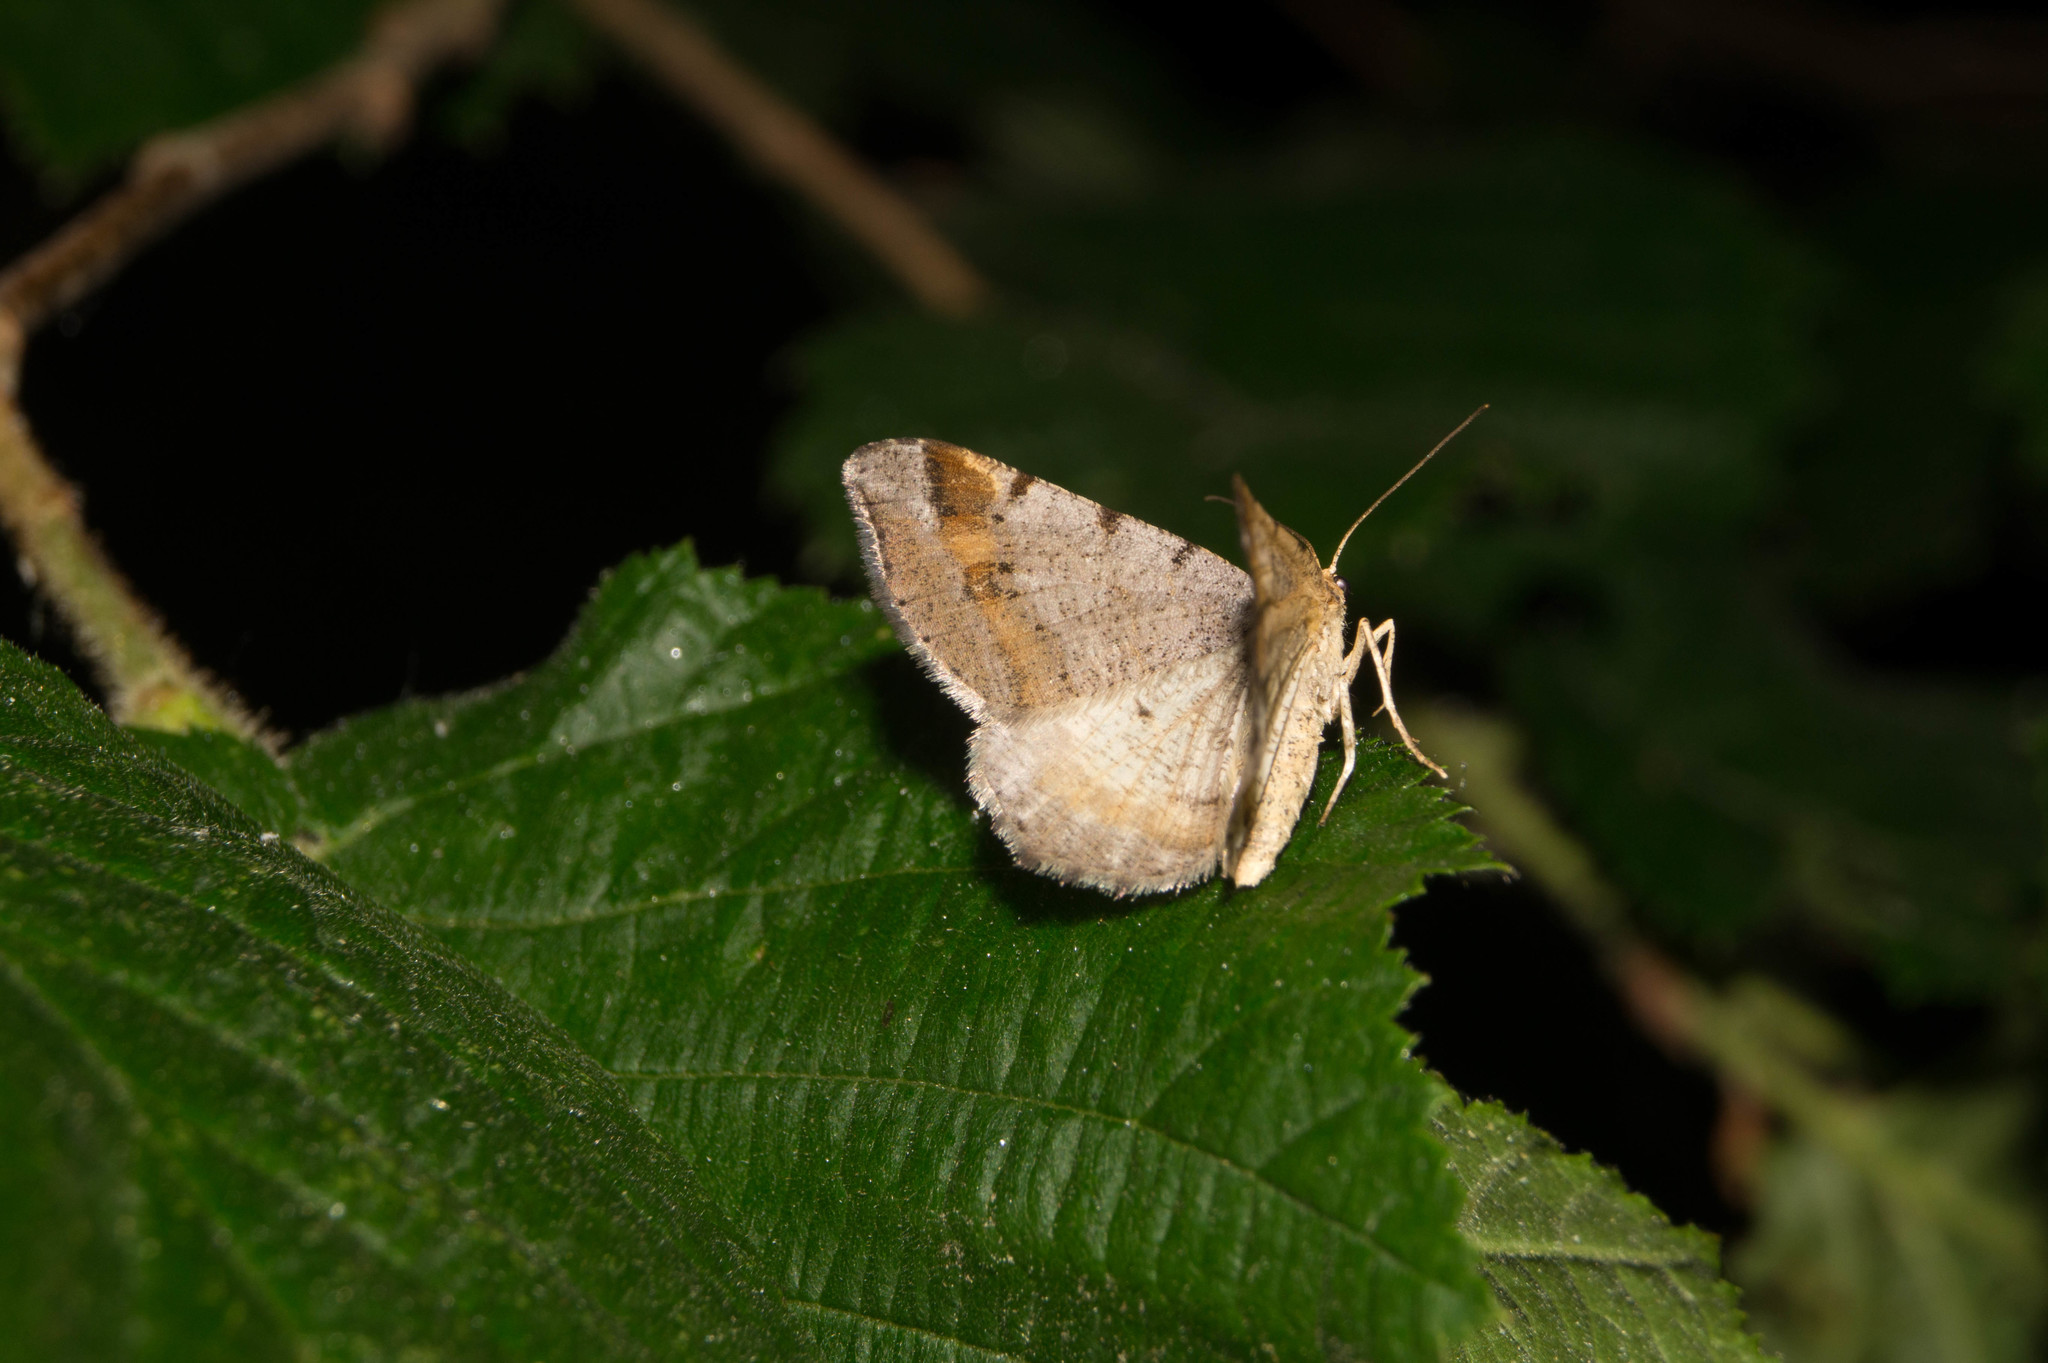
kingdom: Animalia
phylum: Arthropoda
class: Insecta
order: Lepidoptera
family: Geometridae
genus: Macaria
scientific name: Macaria liturata
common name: Tawny-barred angle
